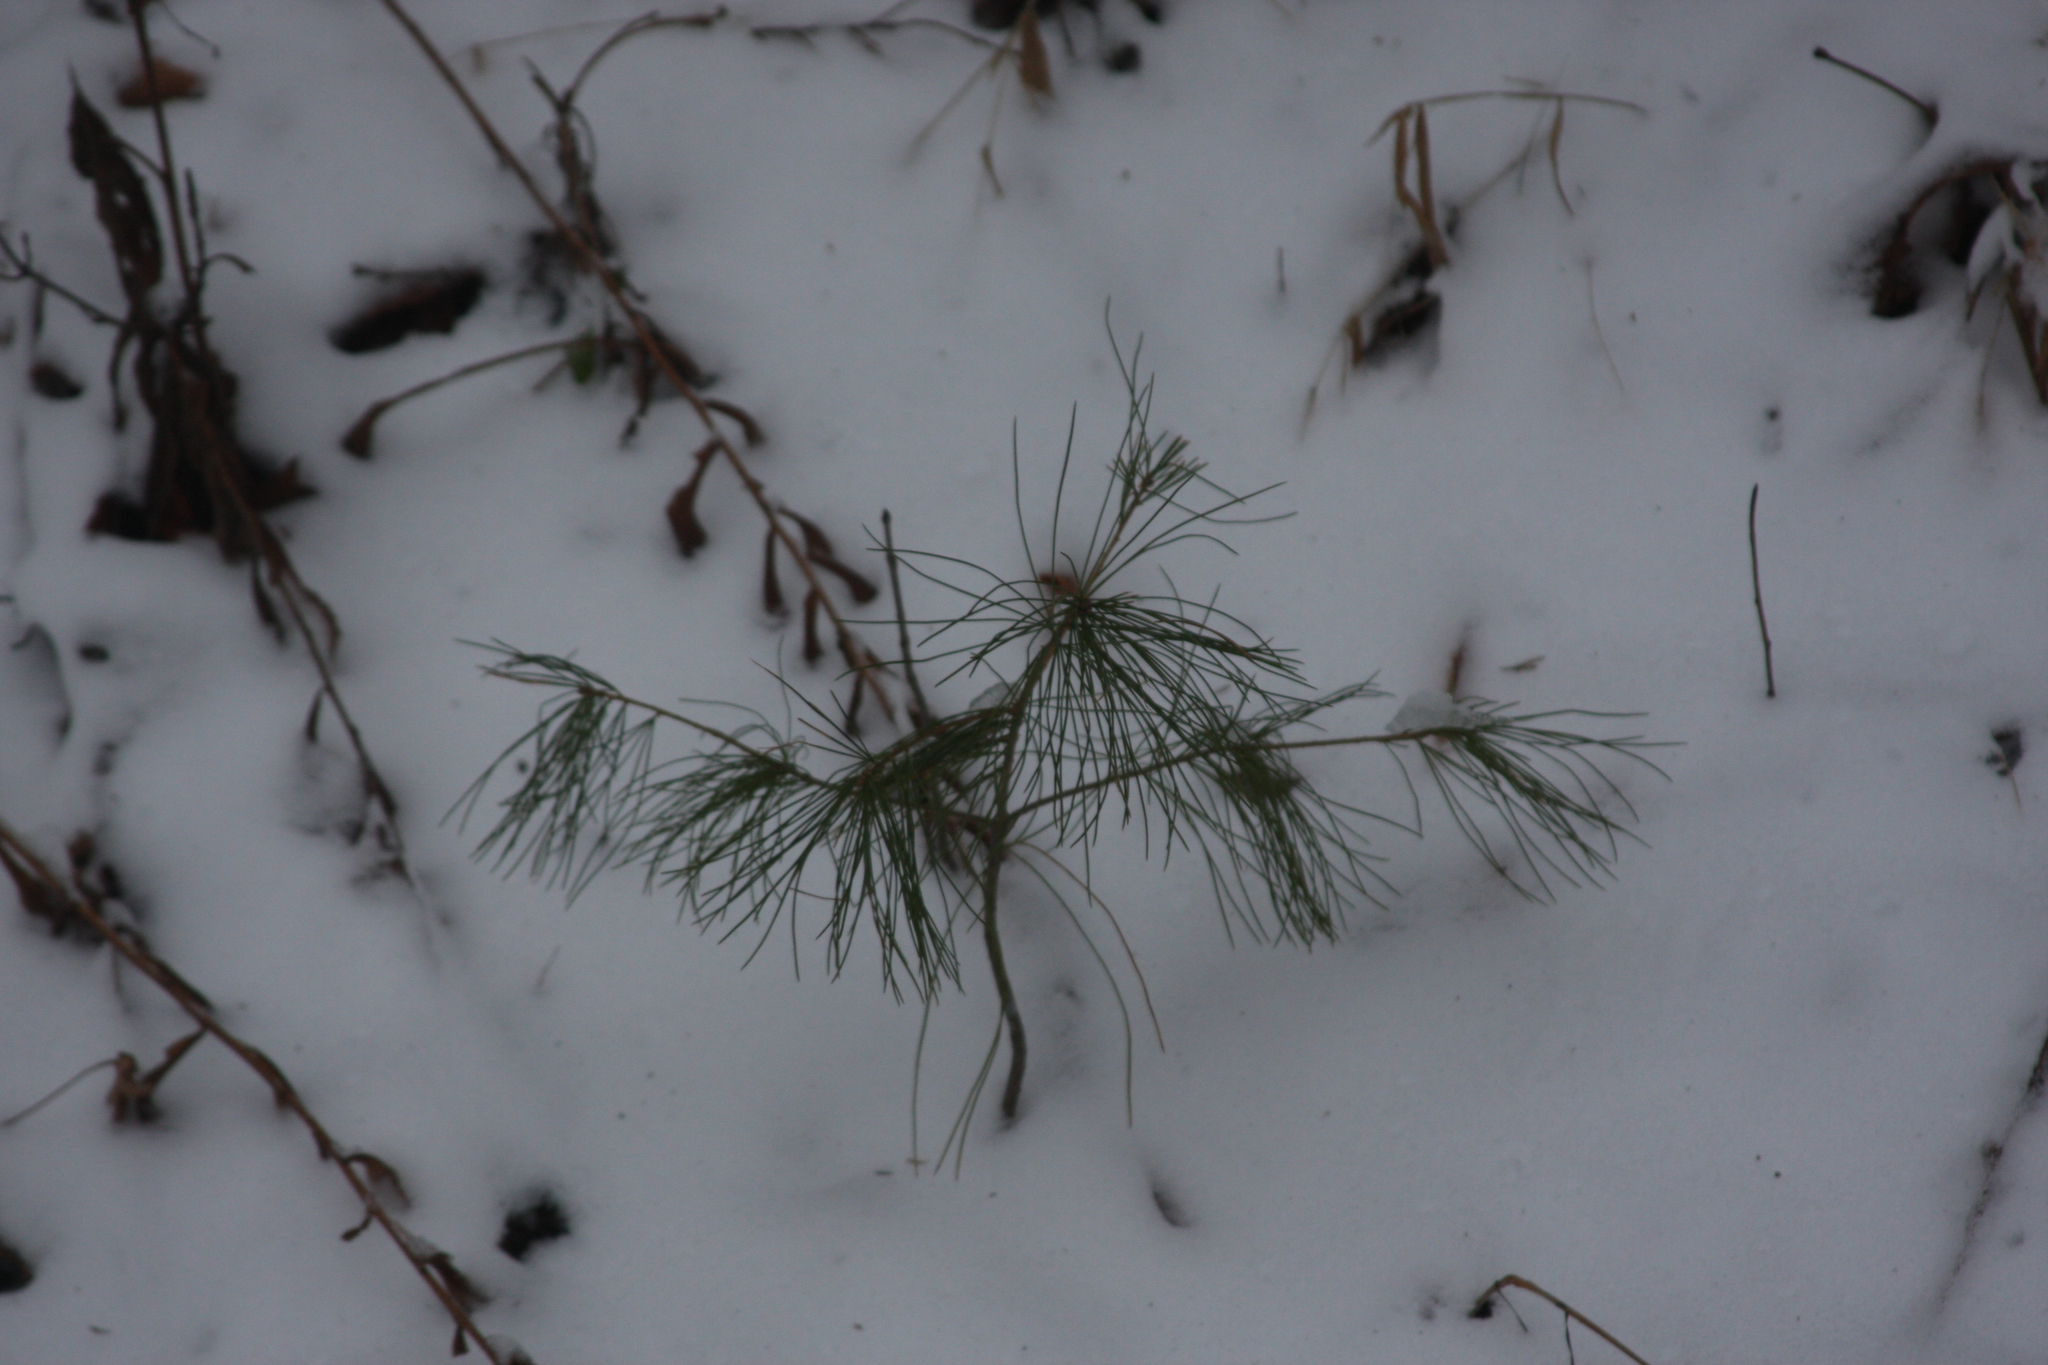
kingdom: Plantae
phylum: Tracheophyta
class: Pinopsida
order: Pinales
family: Pinaceae
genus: Pinus
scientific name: Pinus strobus
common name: Weymouth pine
